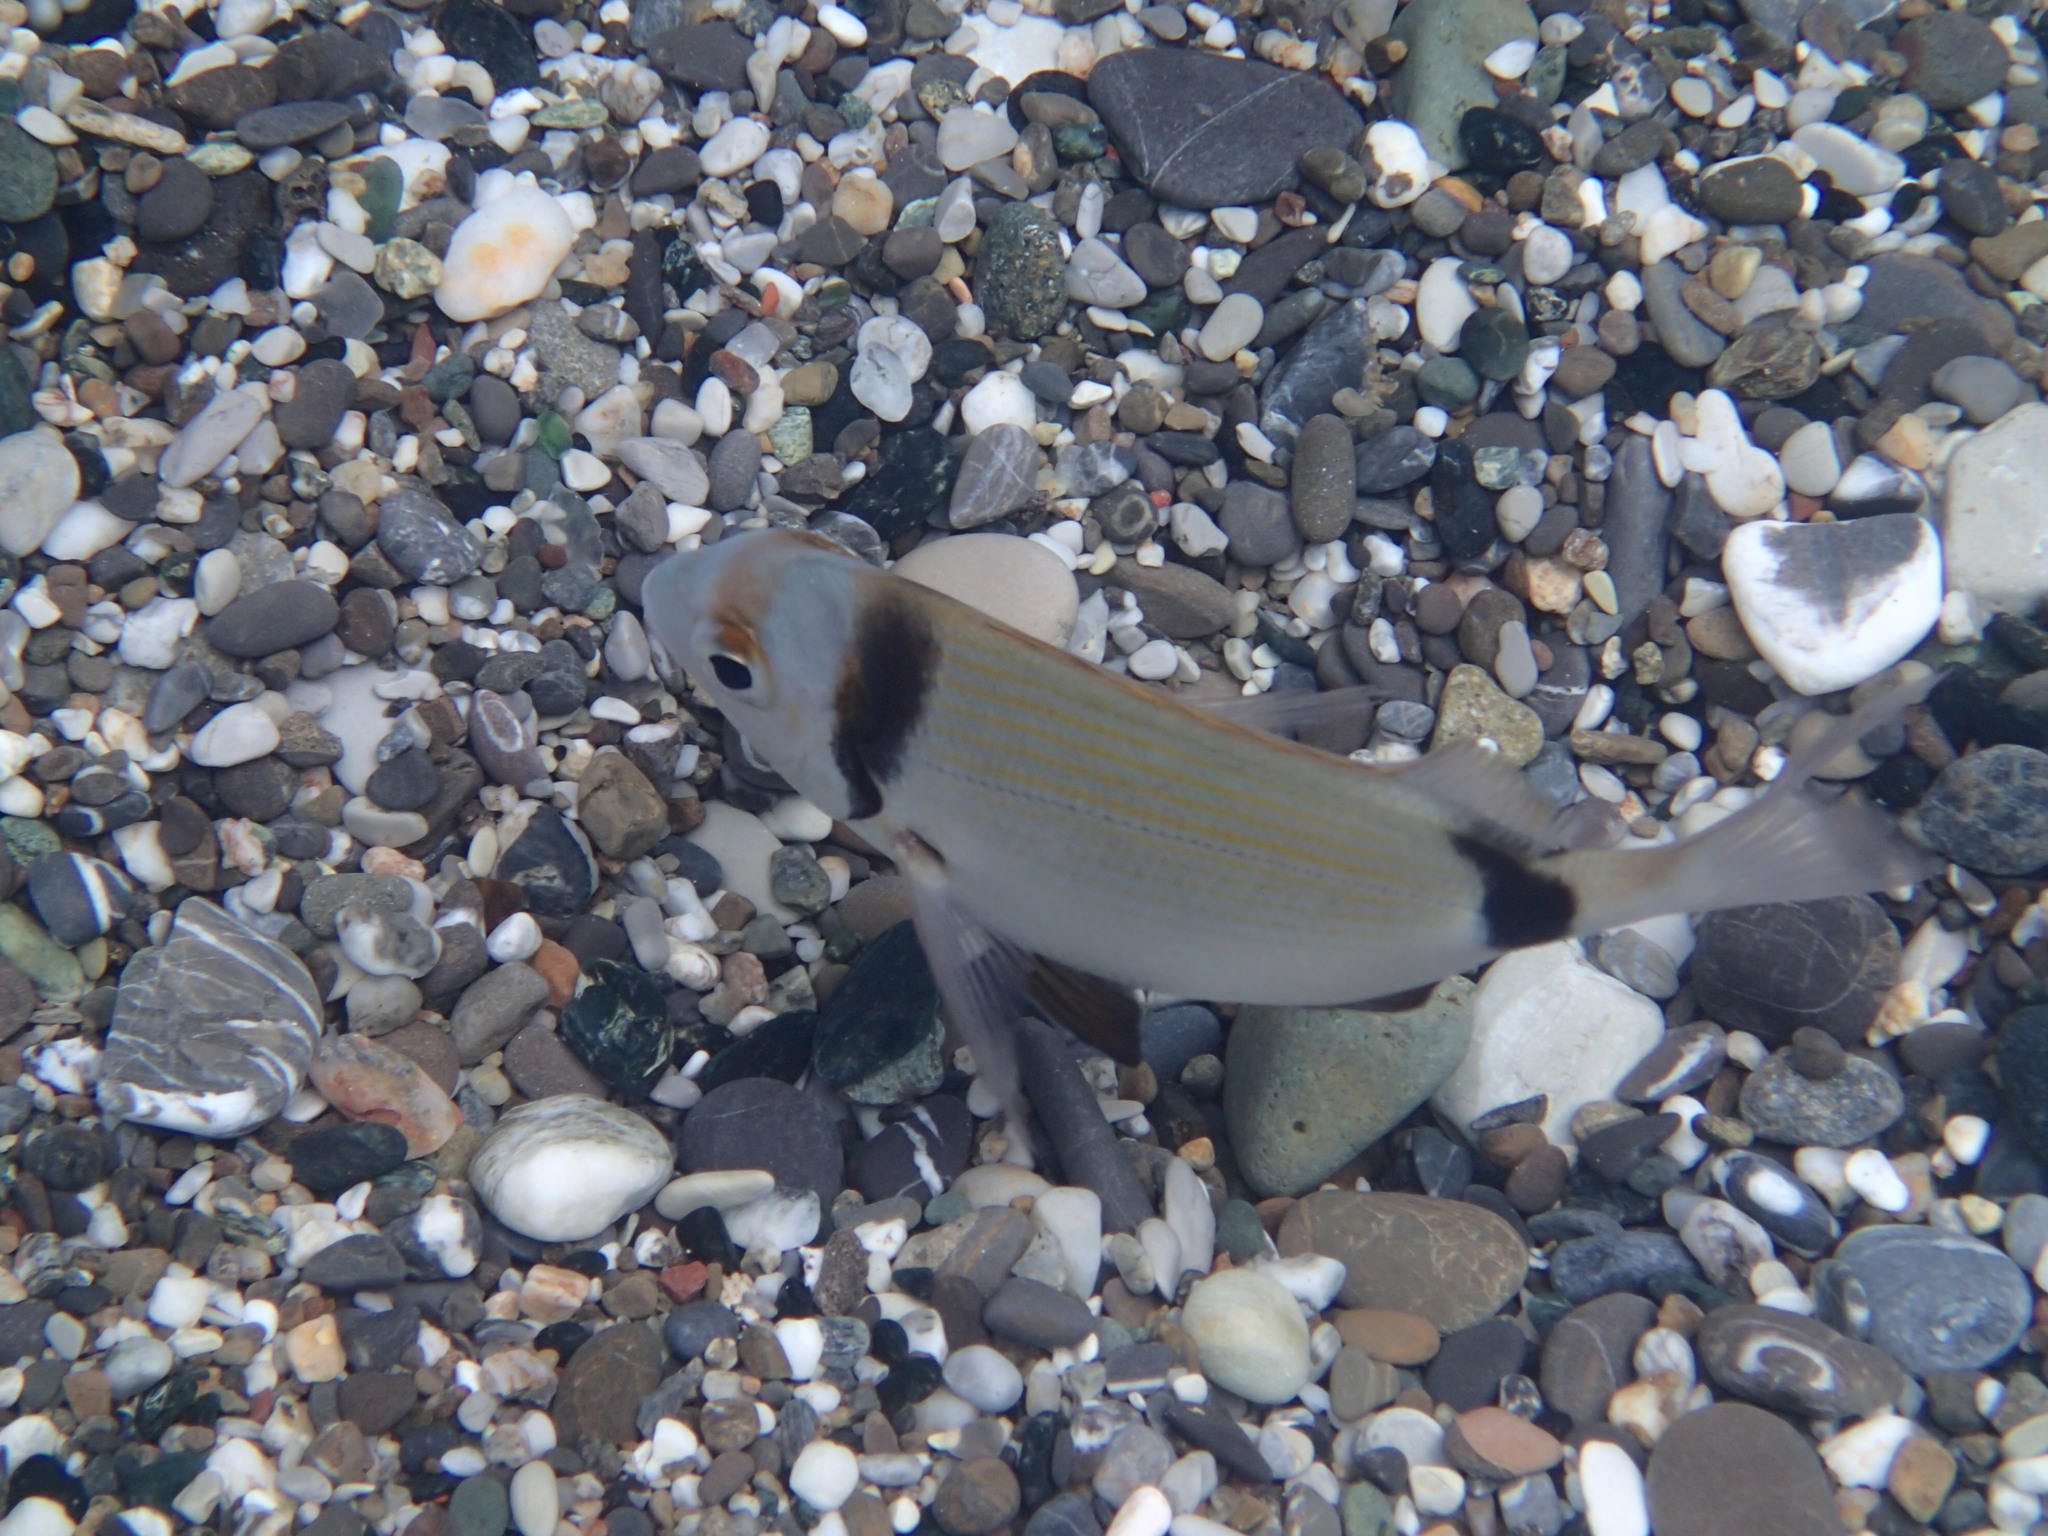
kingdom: Animalia
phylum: Chordata
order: Perciformes
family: Sparidae
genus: Diplodus
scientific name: Diplodus vulgaris
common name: Common two-banded seabream
